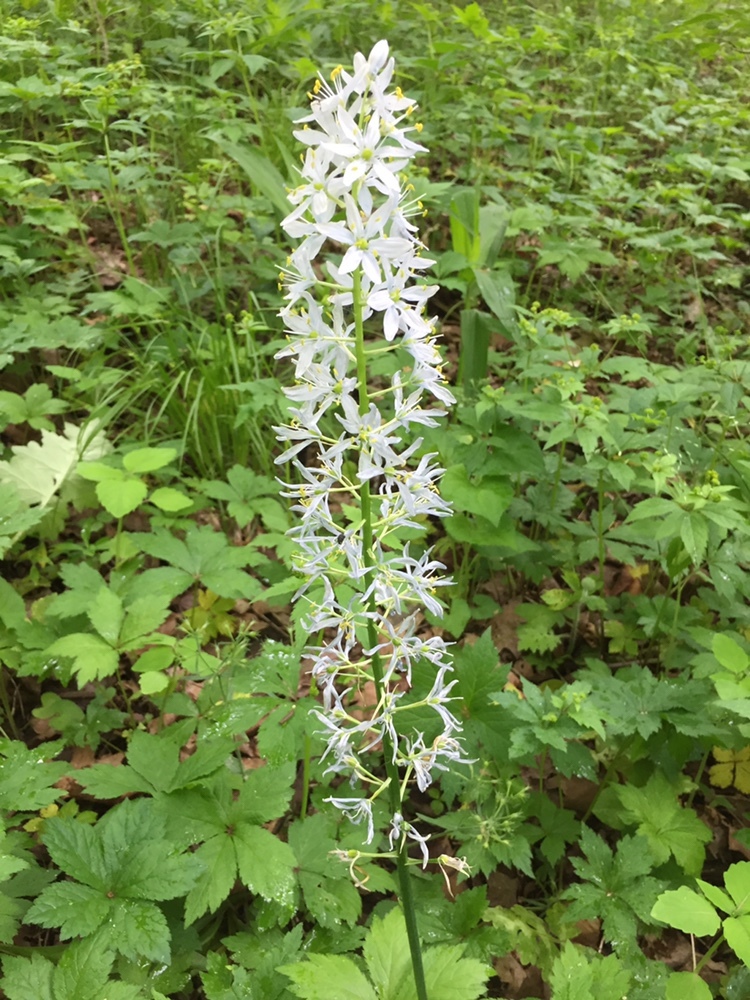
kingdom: Plantae
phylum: Tracheophyta
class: Liliopsida
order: Asparagales
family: Asparagaceae
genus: Camassia
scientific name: Camassia scilloides
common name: Wild hyacinth
